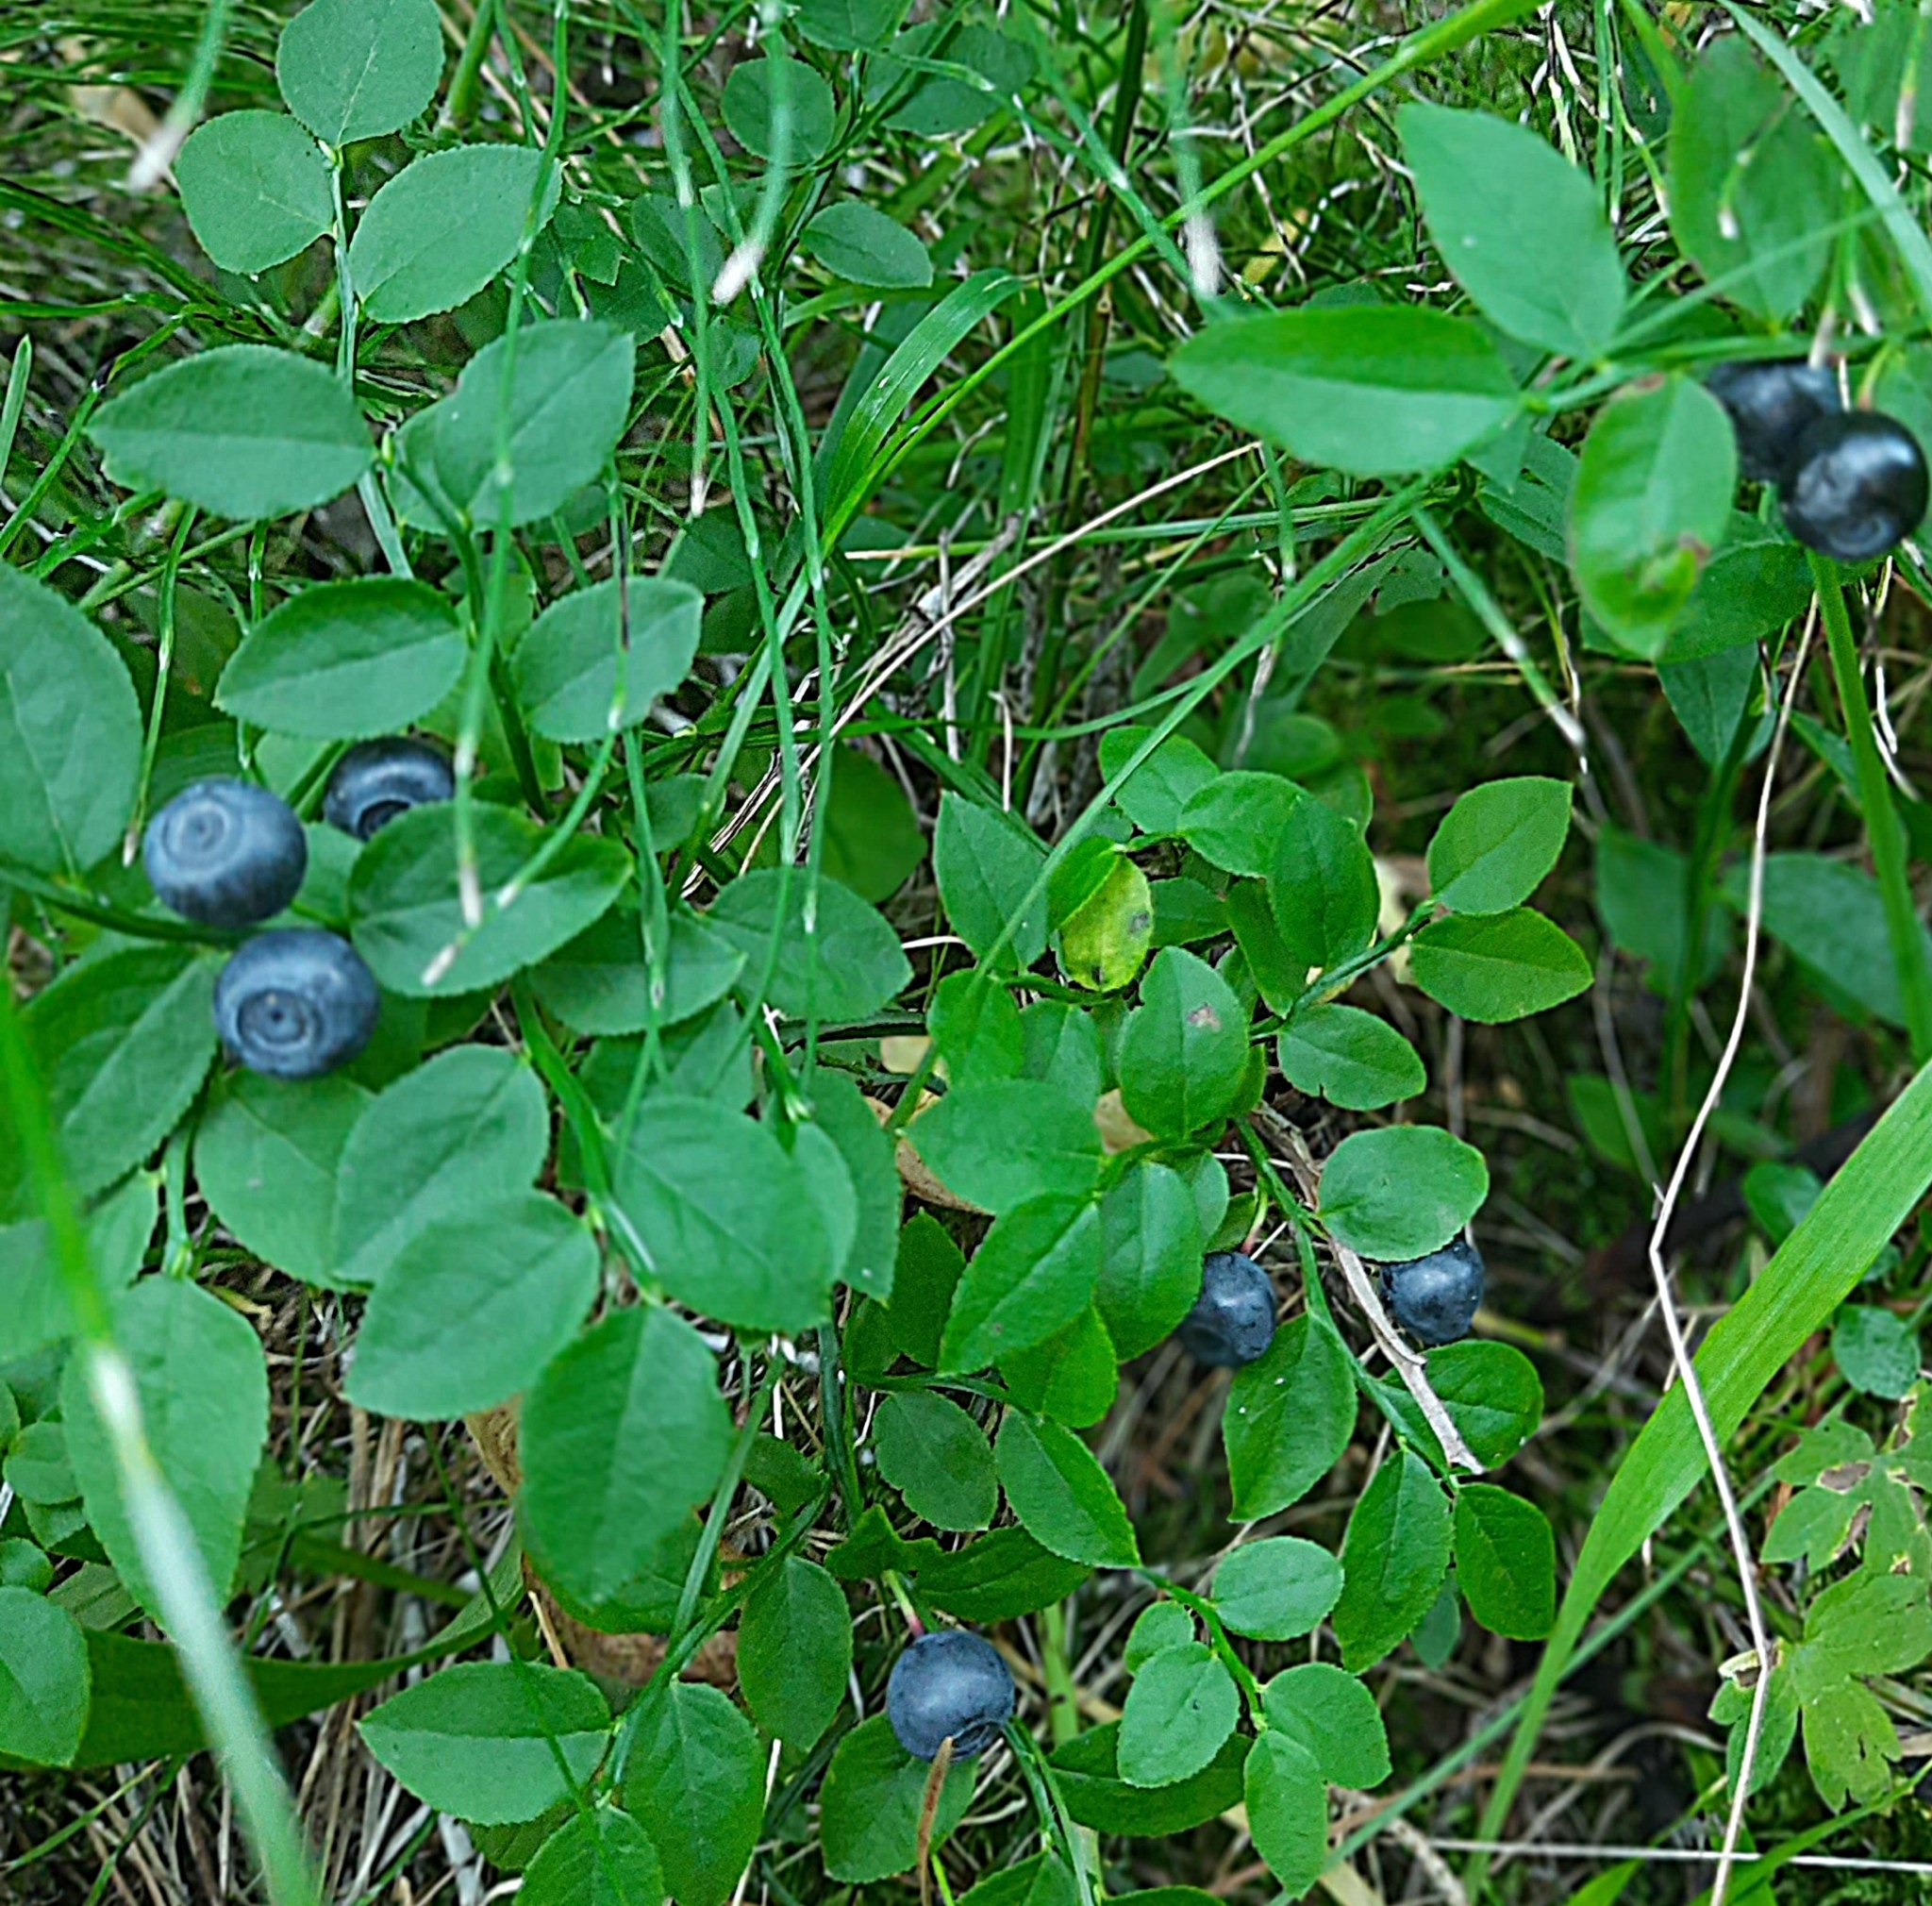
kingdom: Plantae
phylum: Tracheophyta
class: Magnoliopsida
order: Ericales
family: Ericaceae
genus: Vaccinium
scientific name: Vaccinium myrtillus
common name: Bilberry
